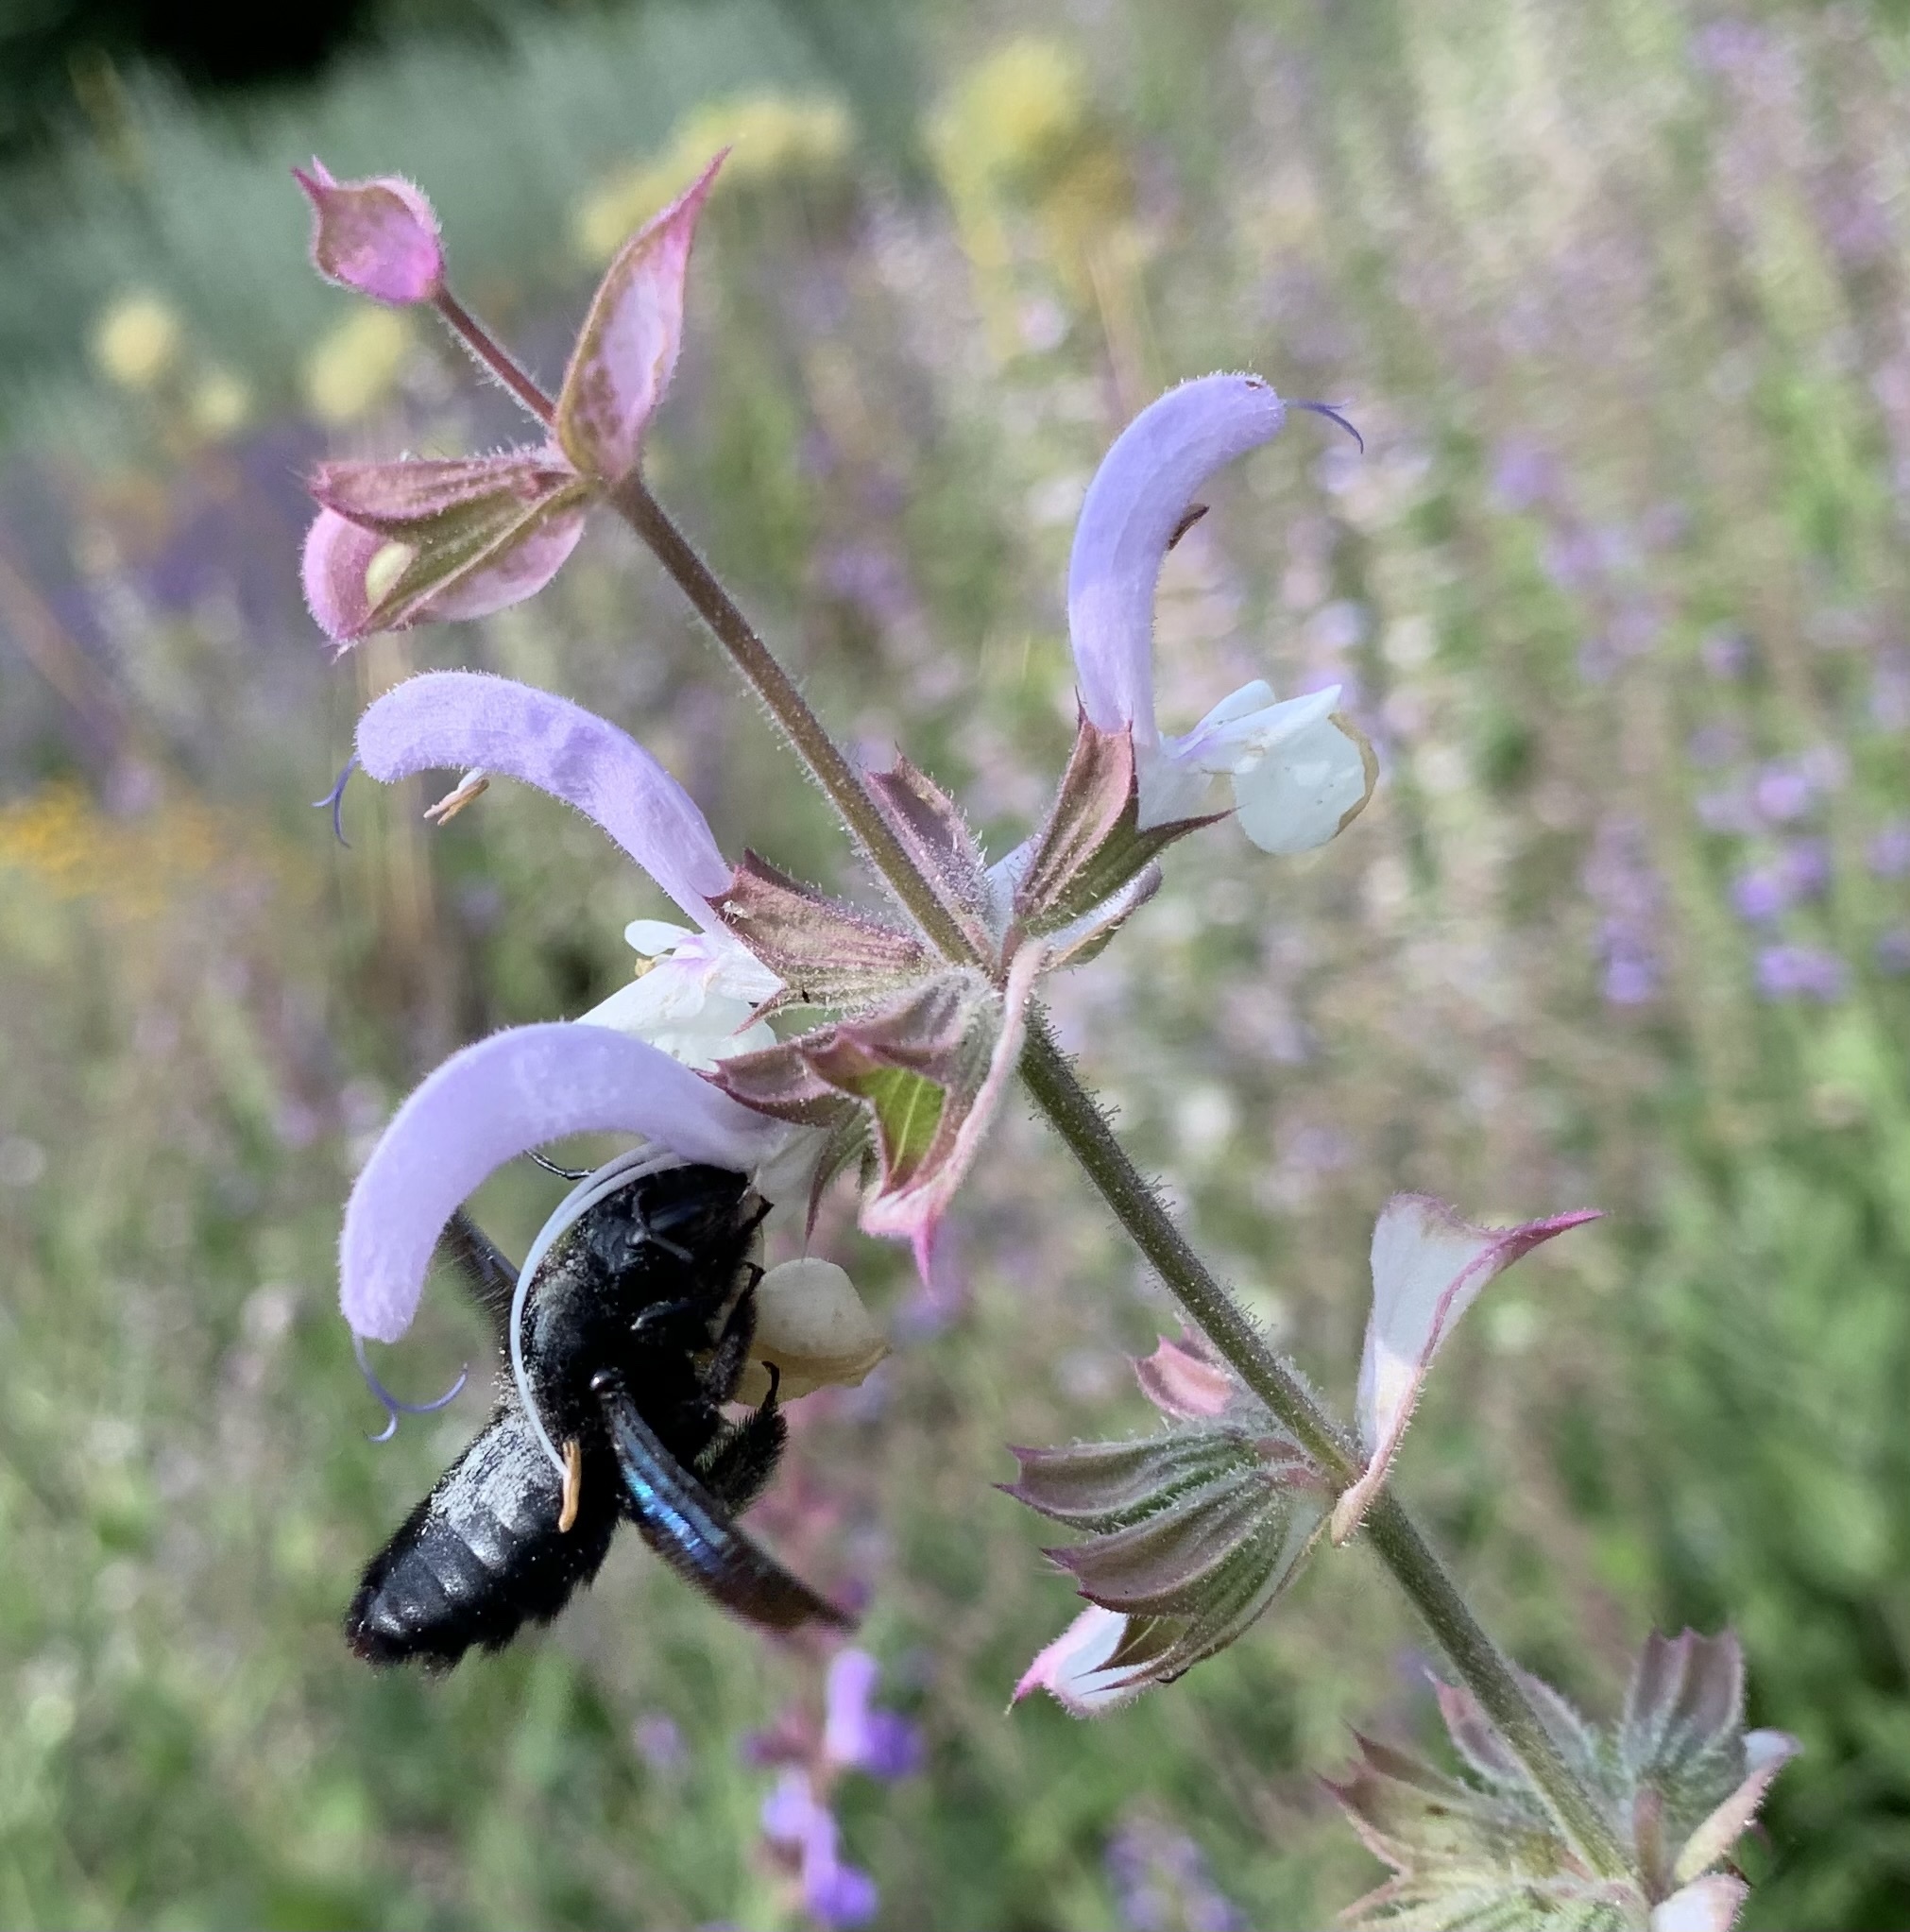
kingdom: Animalia
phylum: Arthropoda
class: Insecta
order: Hymenoptera
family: Apidae
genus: Xylocopa
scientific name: Xylocopa violacea
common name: Violet carpenter bee
